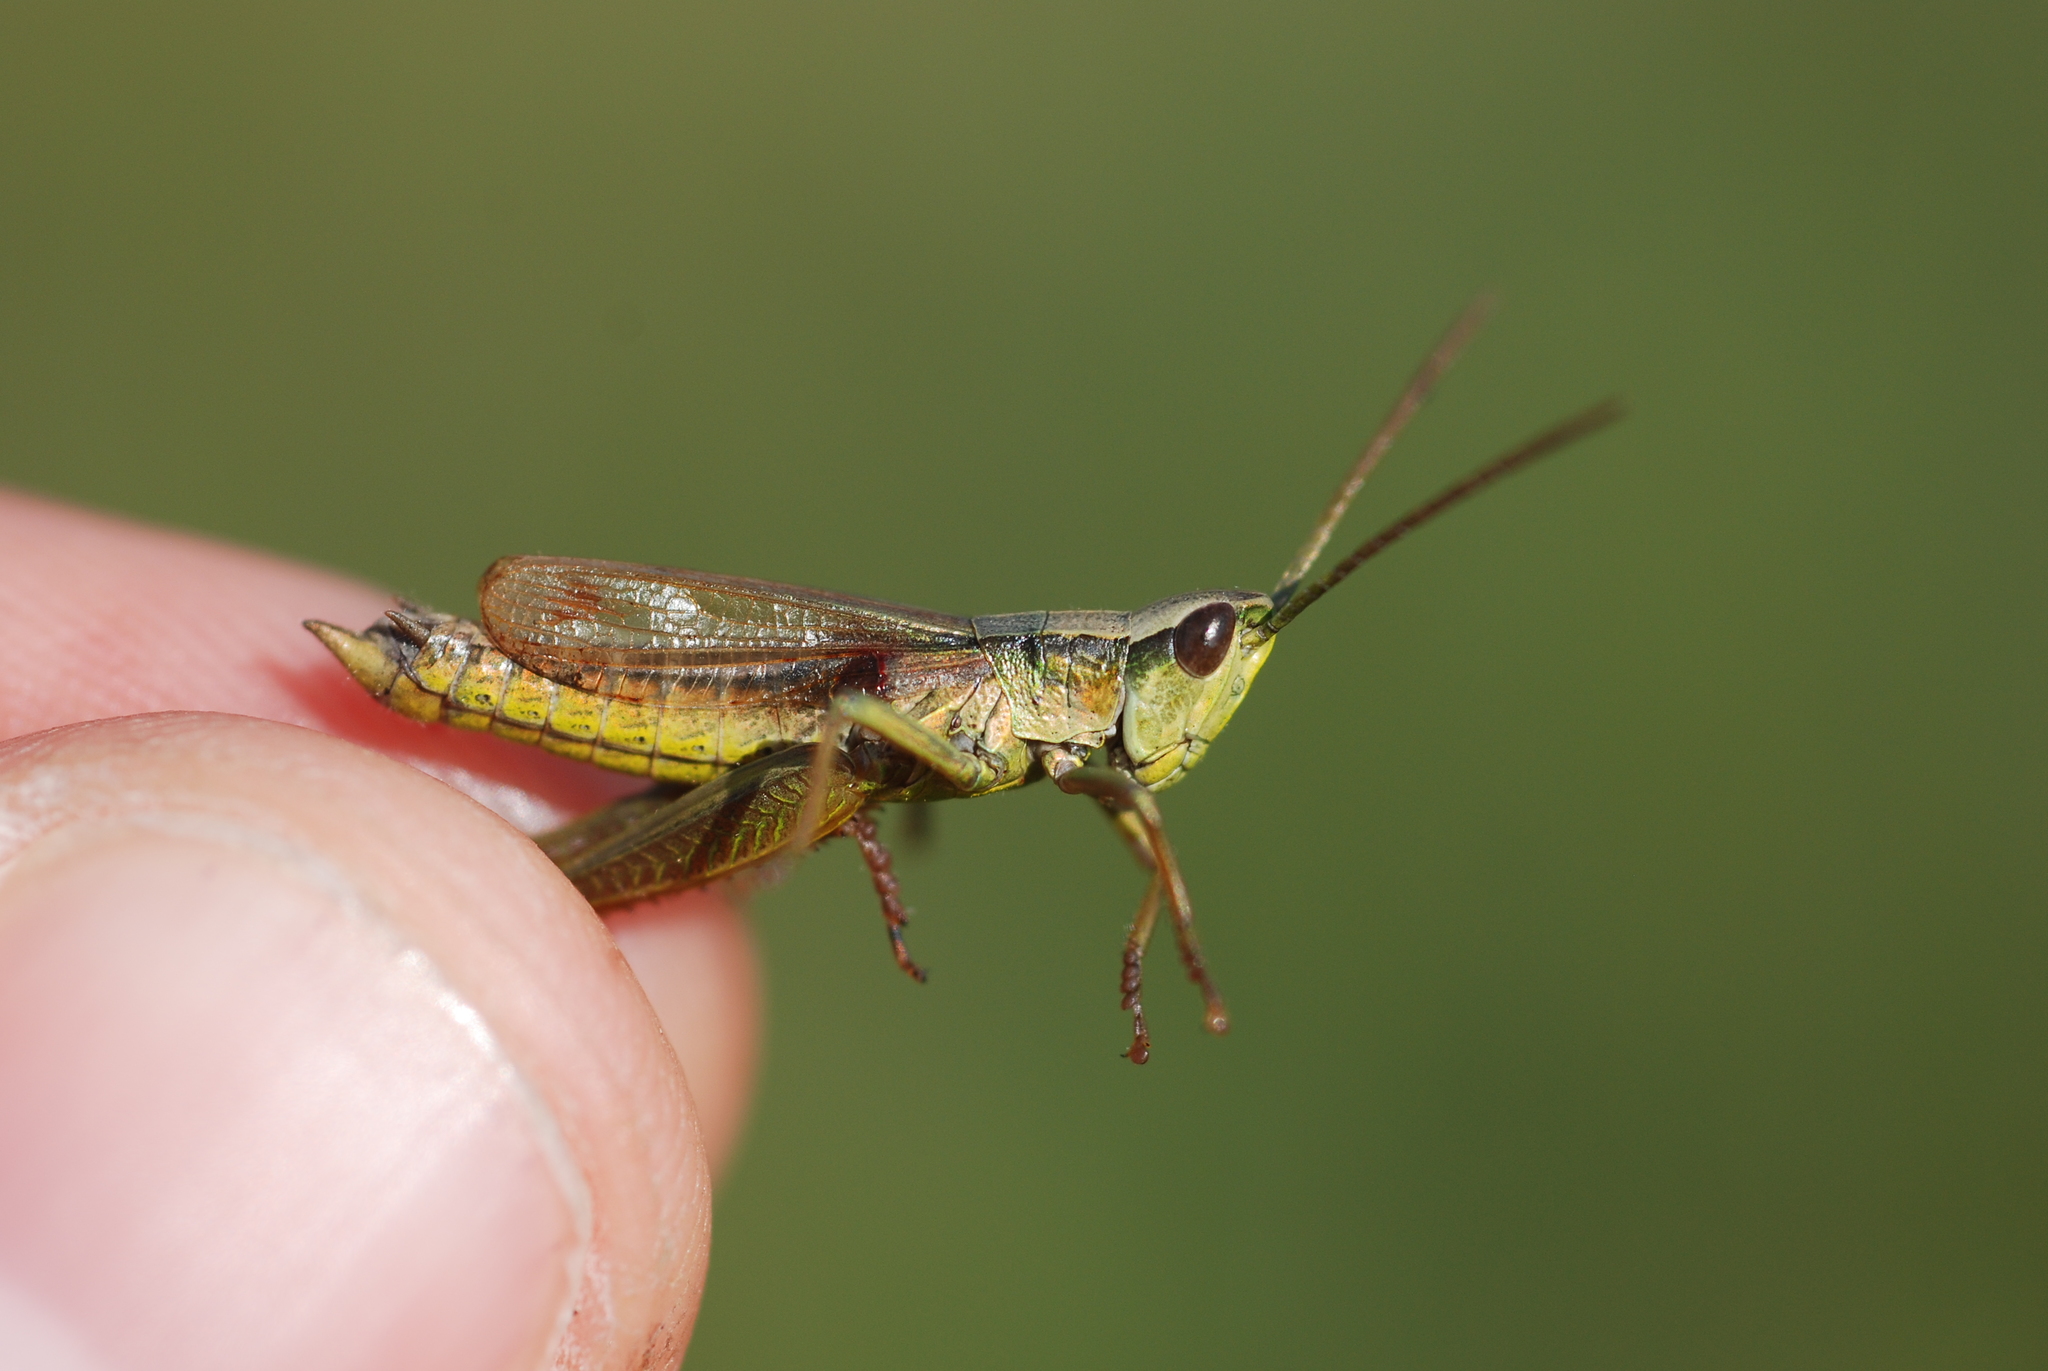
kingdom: Animalia
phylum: Arthropoda
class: Insecta
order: Orthoptera
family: Acrididae
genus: Chrysochraon
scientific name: Chrysochraon dispar
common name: Large gold grasshopper
